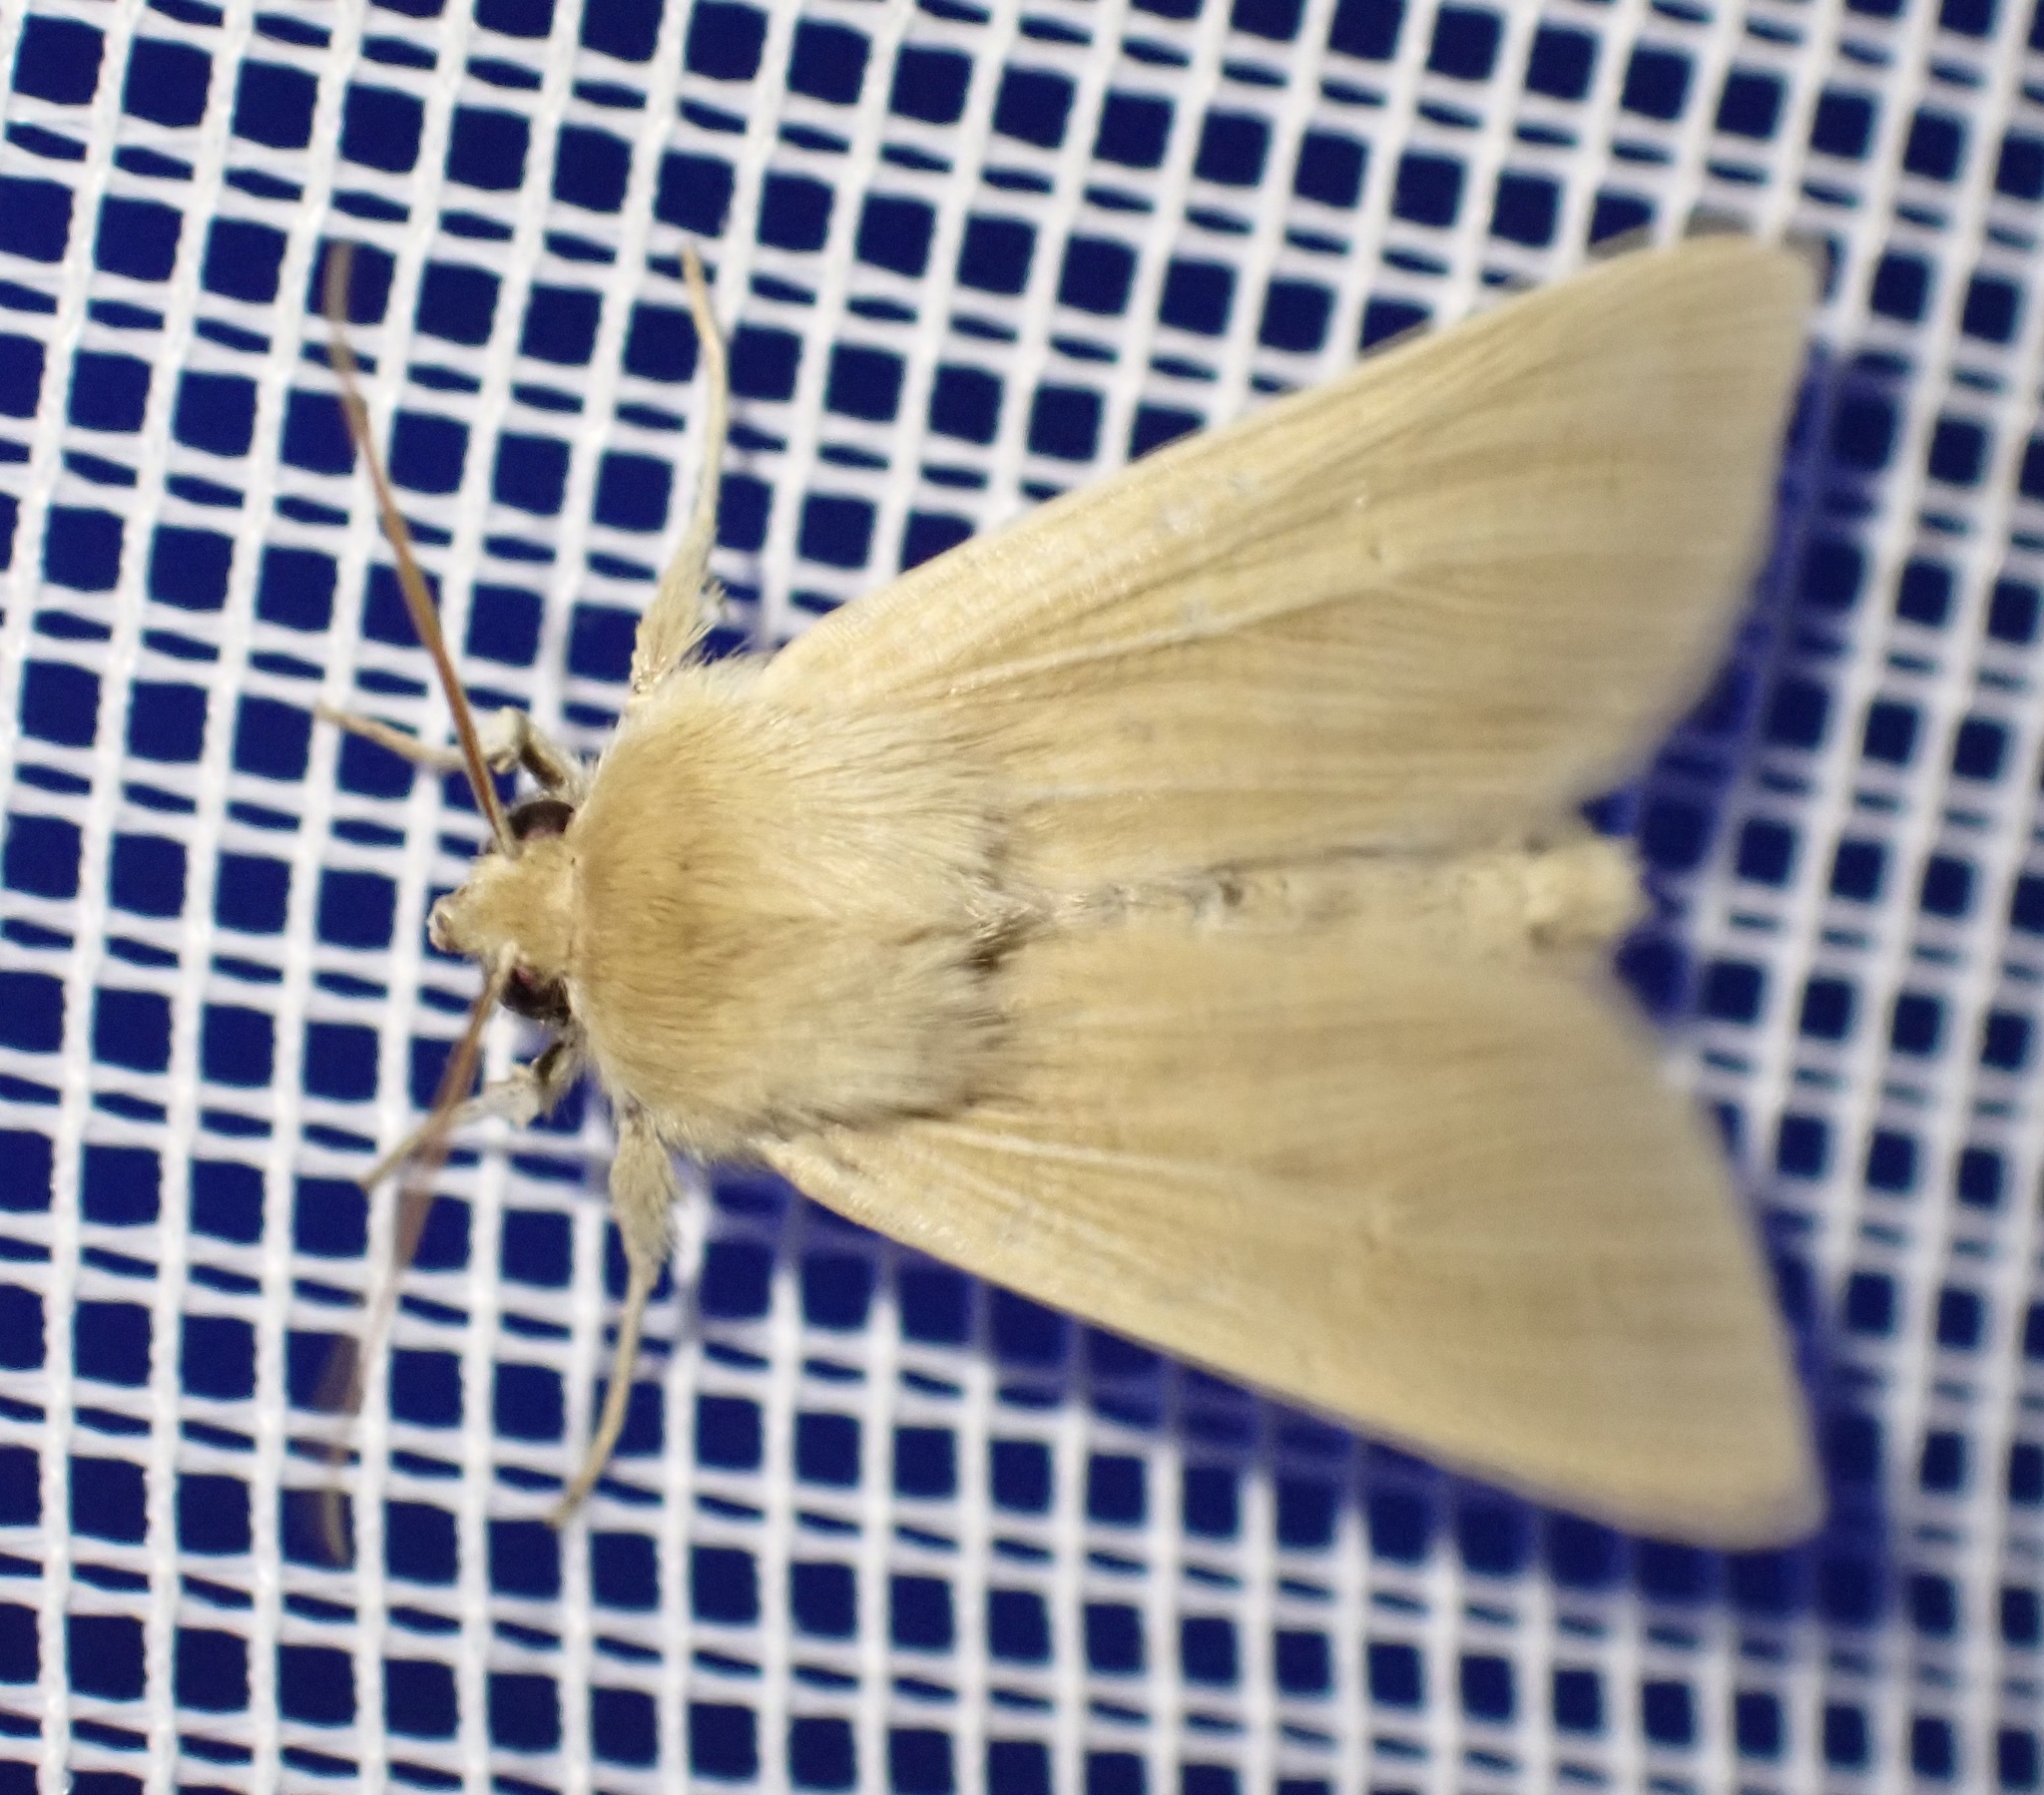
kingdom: Animalia
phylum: Arthropoda
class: Insecta
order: Lepidoptera
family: Noctuidae
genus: Mythimna
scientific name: Mythimna pallens
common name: Common wainscot
